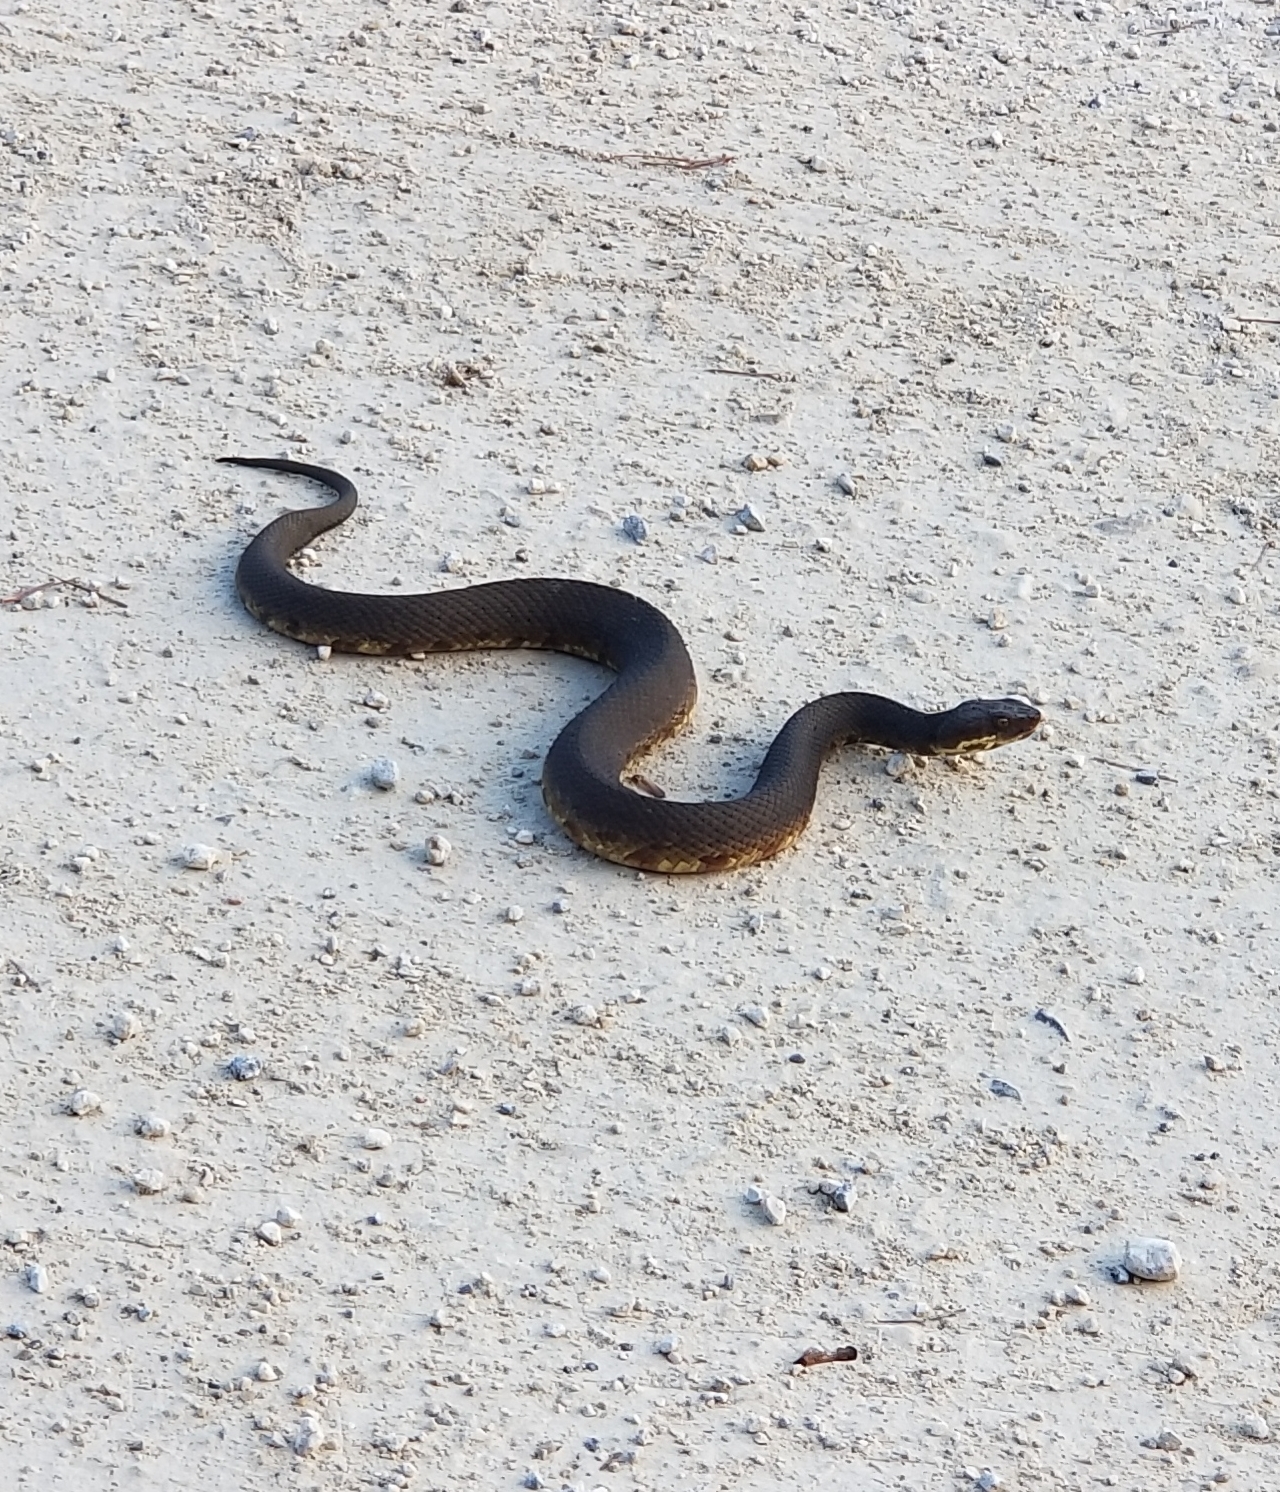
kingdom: Animalia
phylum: Chordata
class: Squamata
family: Viperidae
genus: Agkistrodon
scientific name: Agkistrodon piscivorus
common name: Cottonmouth
